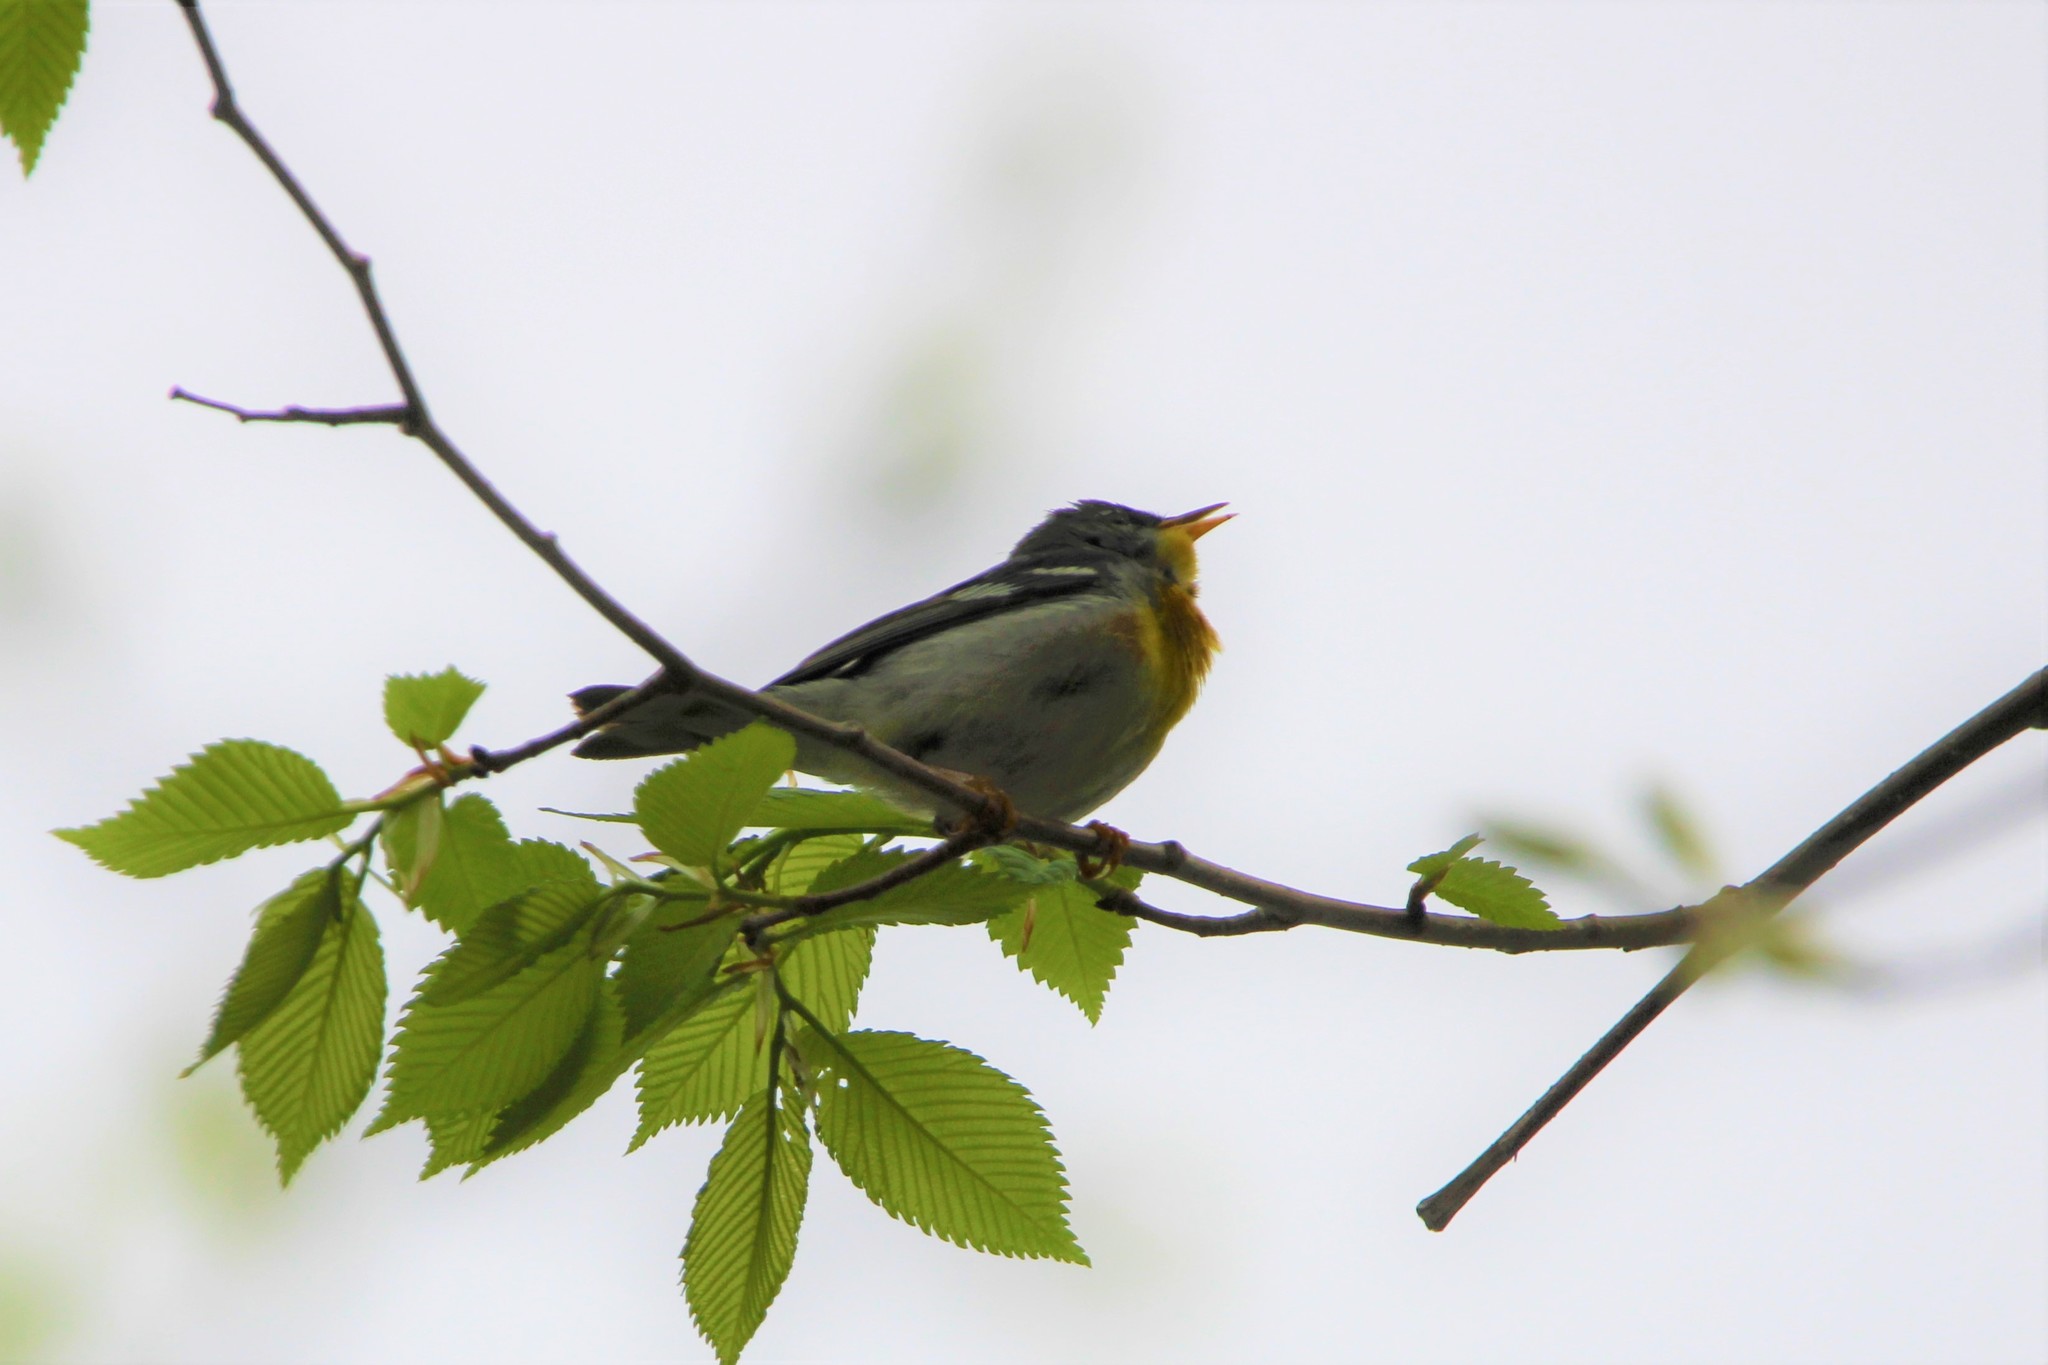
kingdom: Animalia
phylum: Chordata
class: Aves
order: Passeriformes
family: Parulidae
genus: Setophaga
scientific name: Setophaga americana
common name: Northern parula
